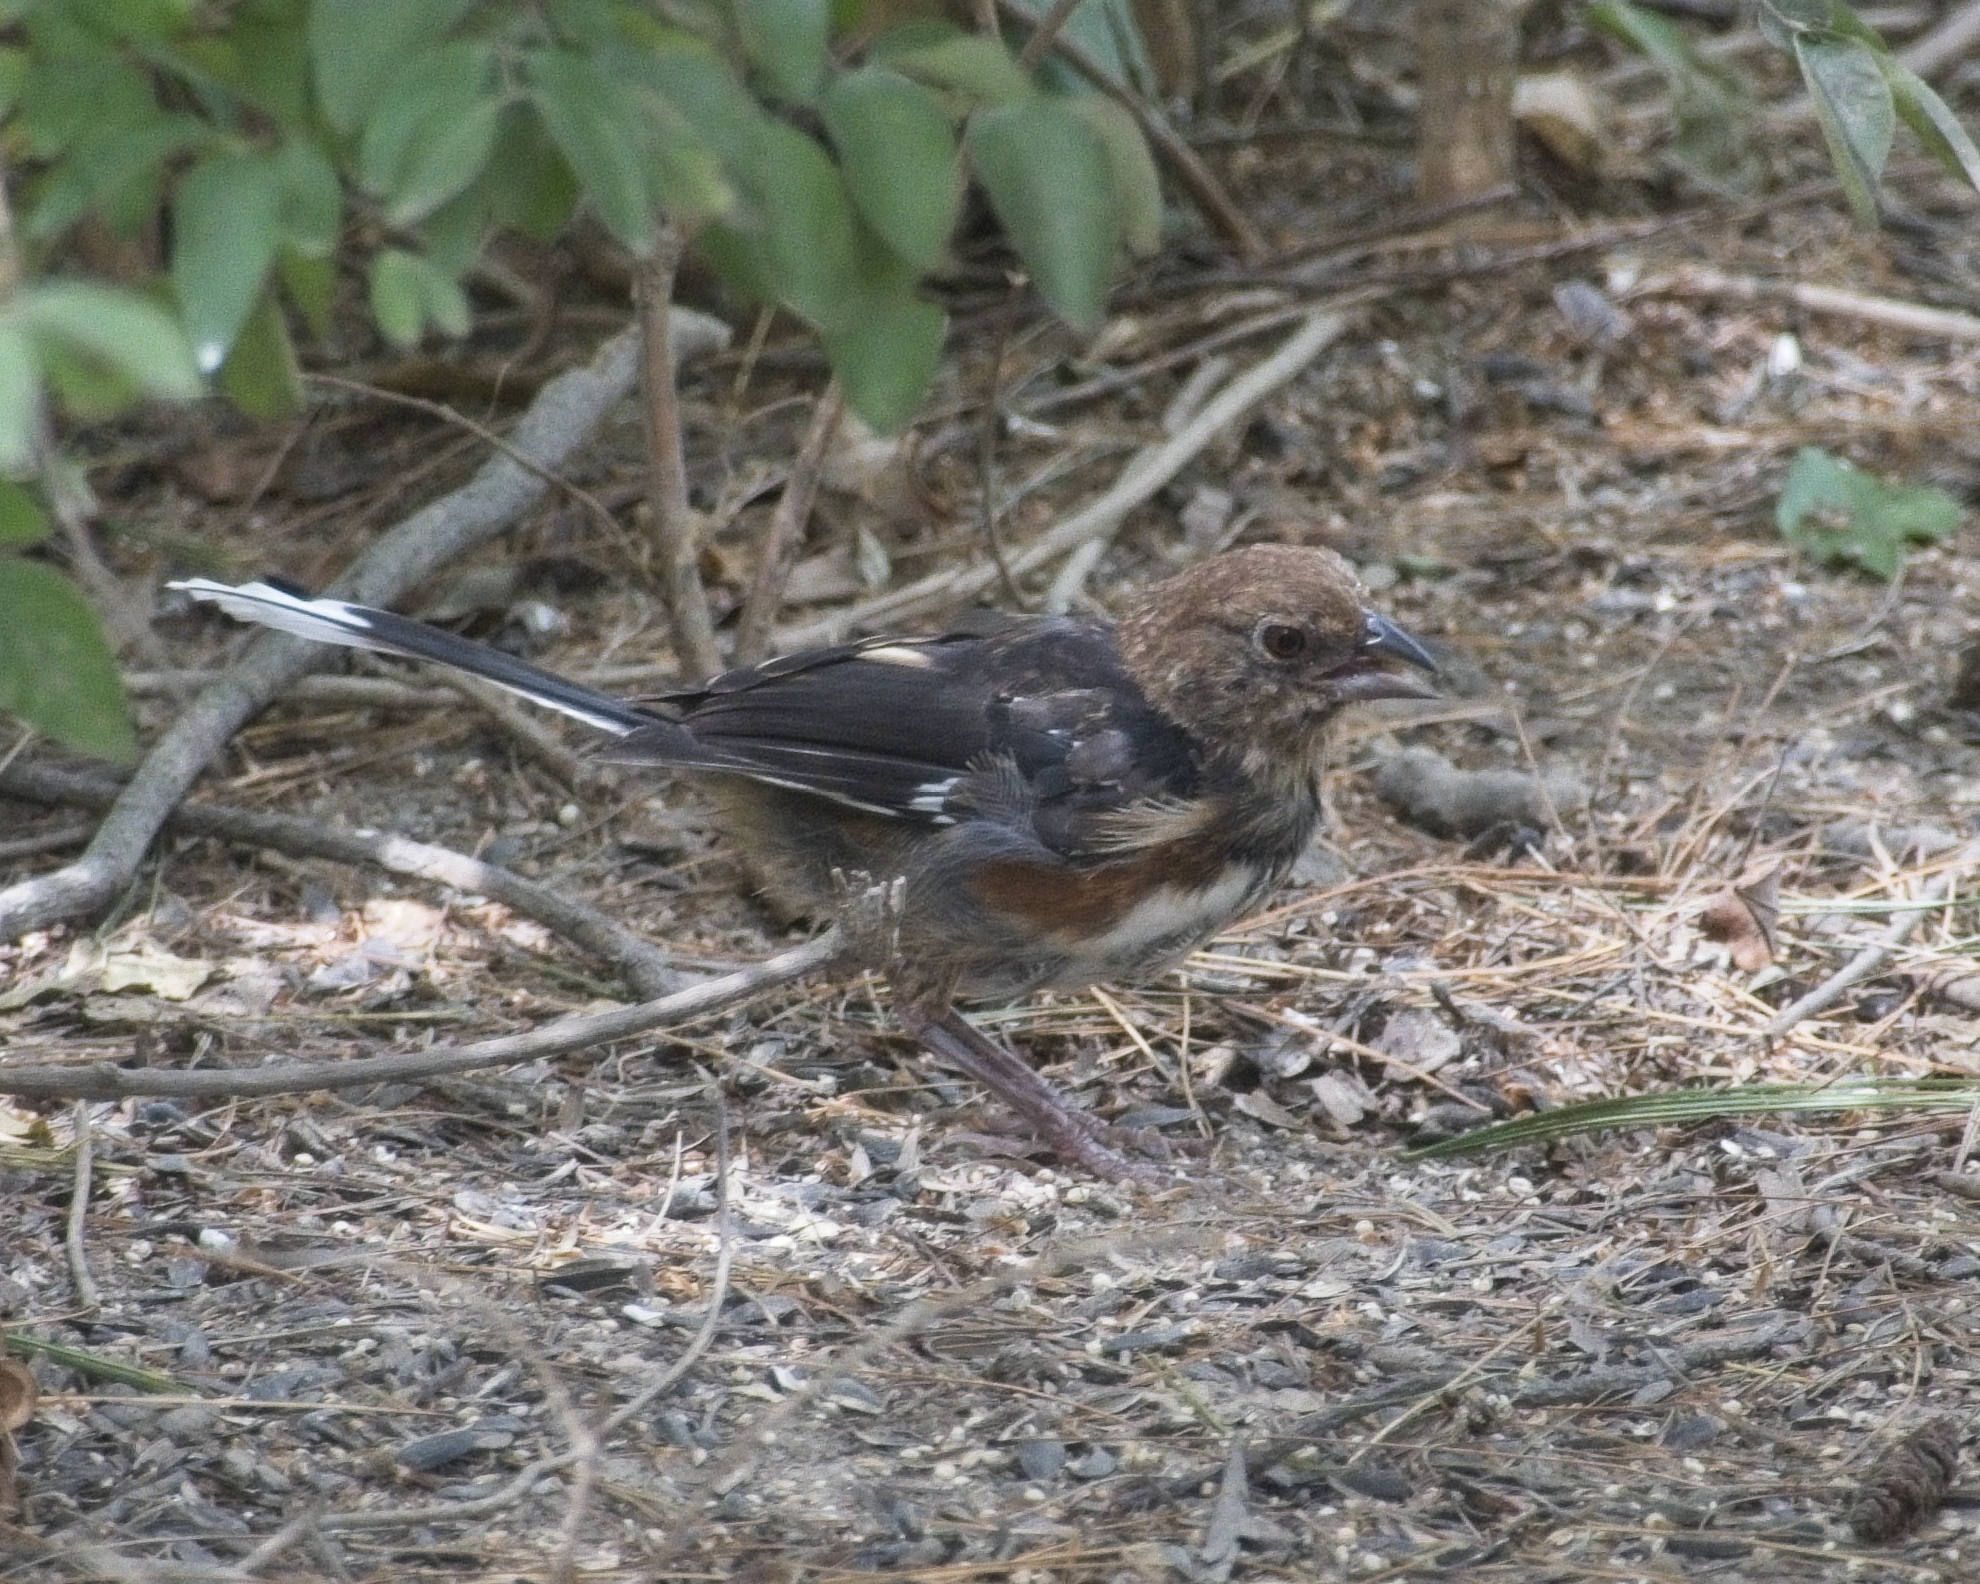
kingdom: Animalia
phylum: Chordata
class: Aves
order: Passeriformes
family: Passerellidae
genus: Pipilo
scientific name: Pipilo erythrophthalmus
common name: Eastern towhee
